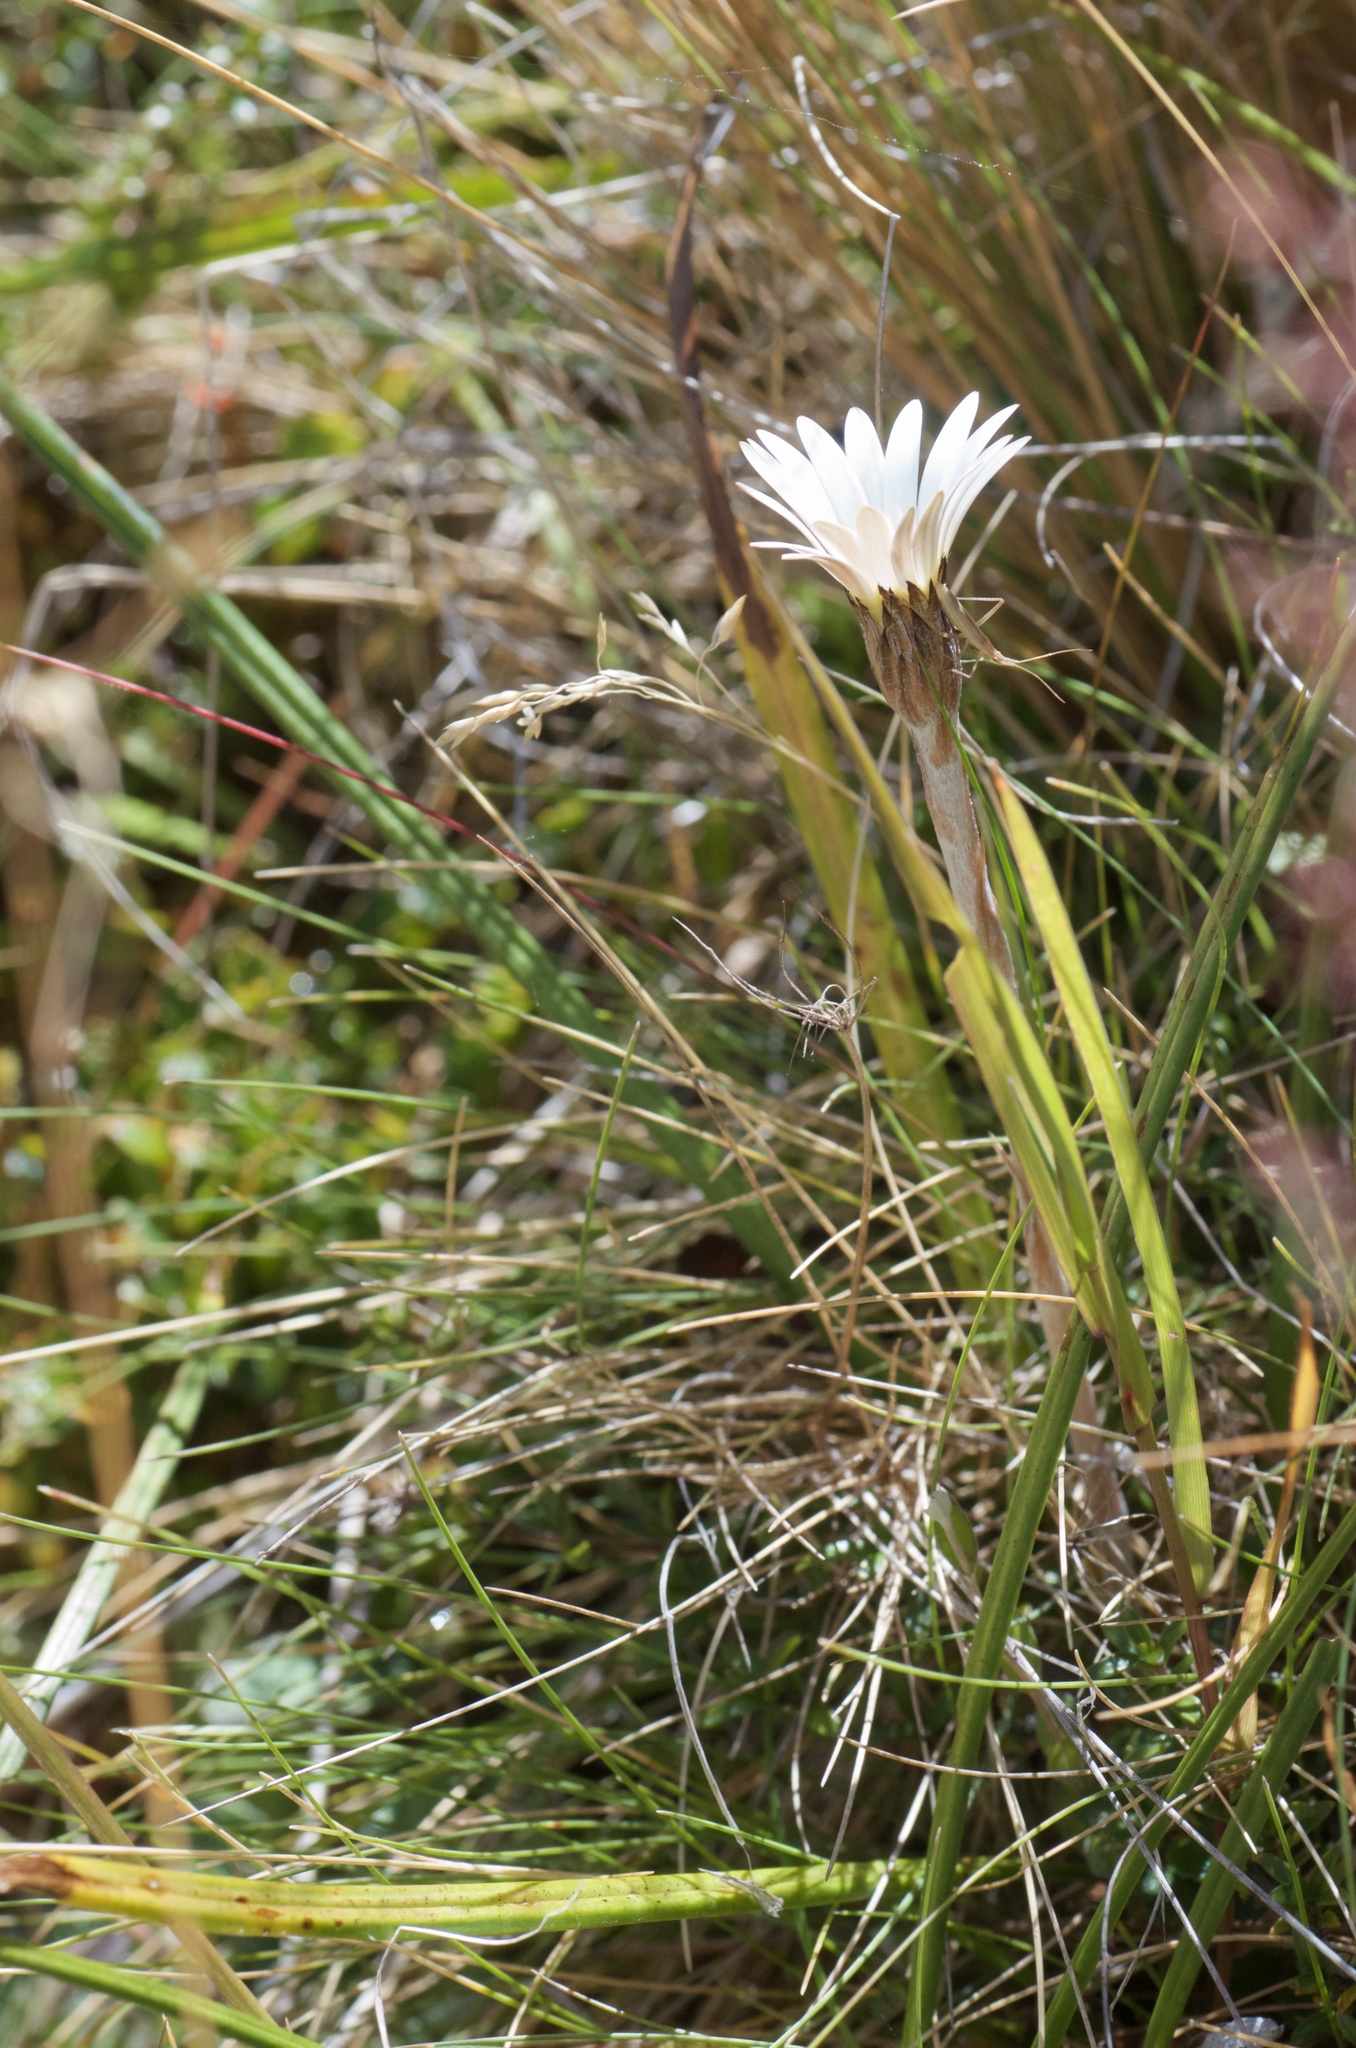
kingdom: Plantae
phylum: Tracheophyta
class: Magnoliopsida
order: Asterales
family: Asteraceae
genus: Celmisia
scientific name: Celmisia gracilenta
